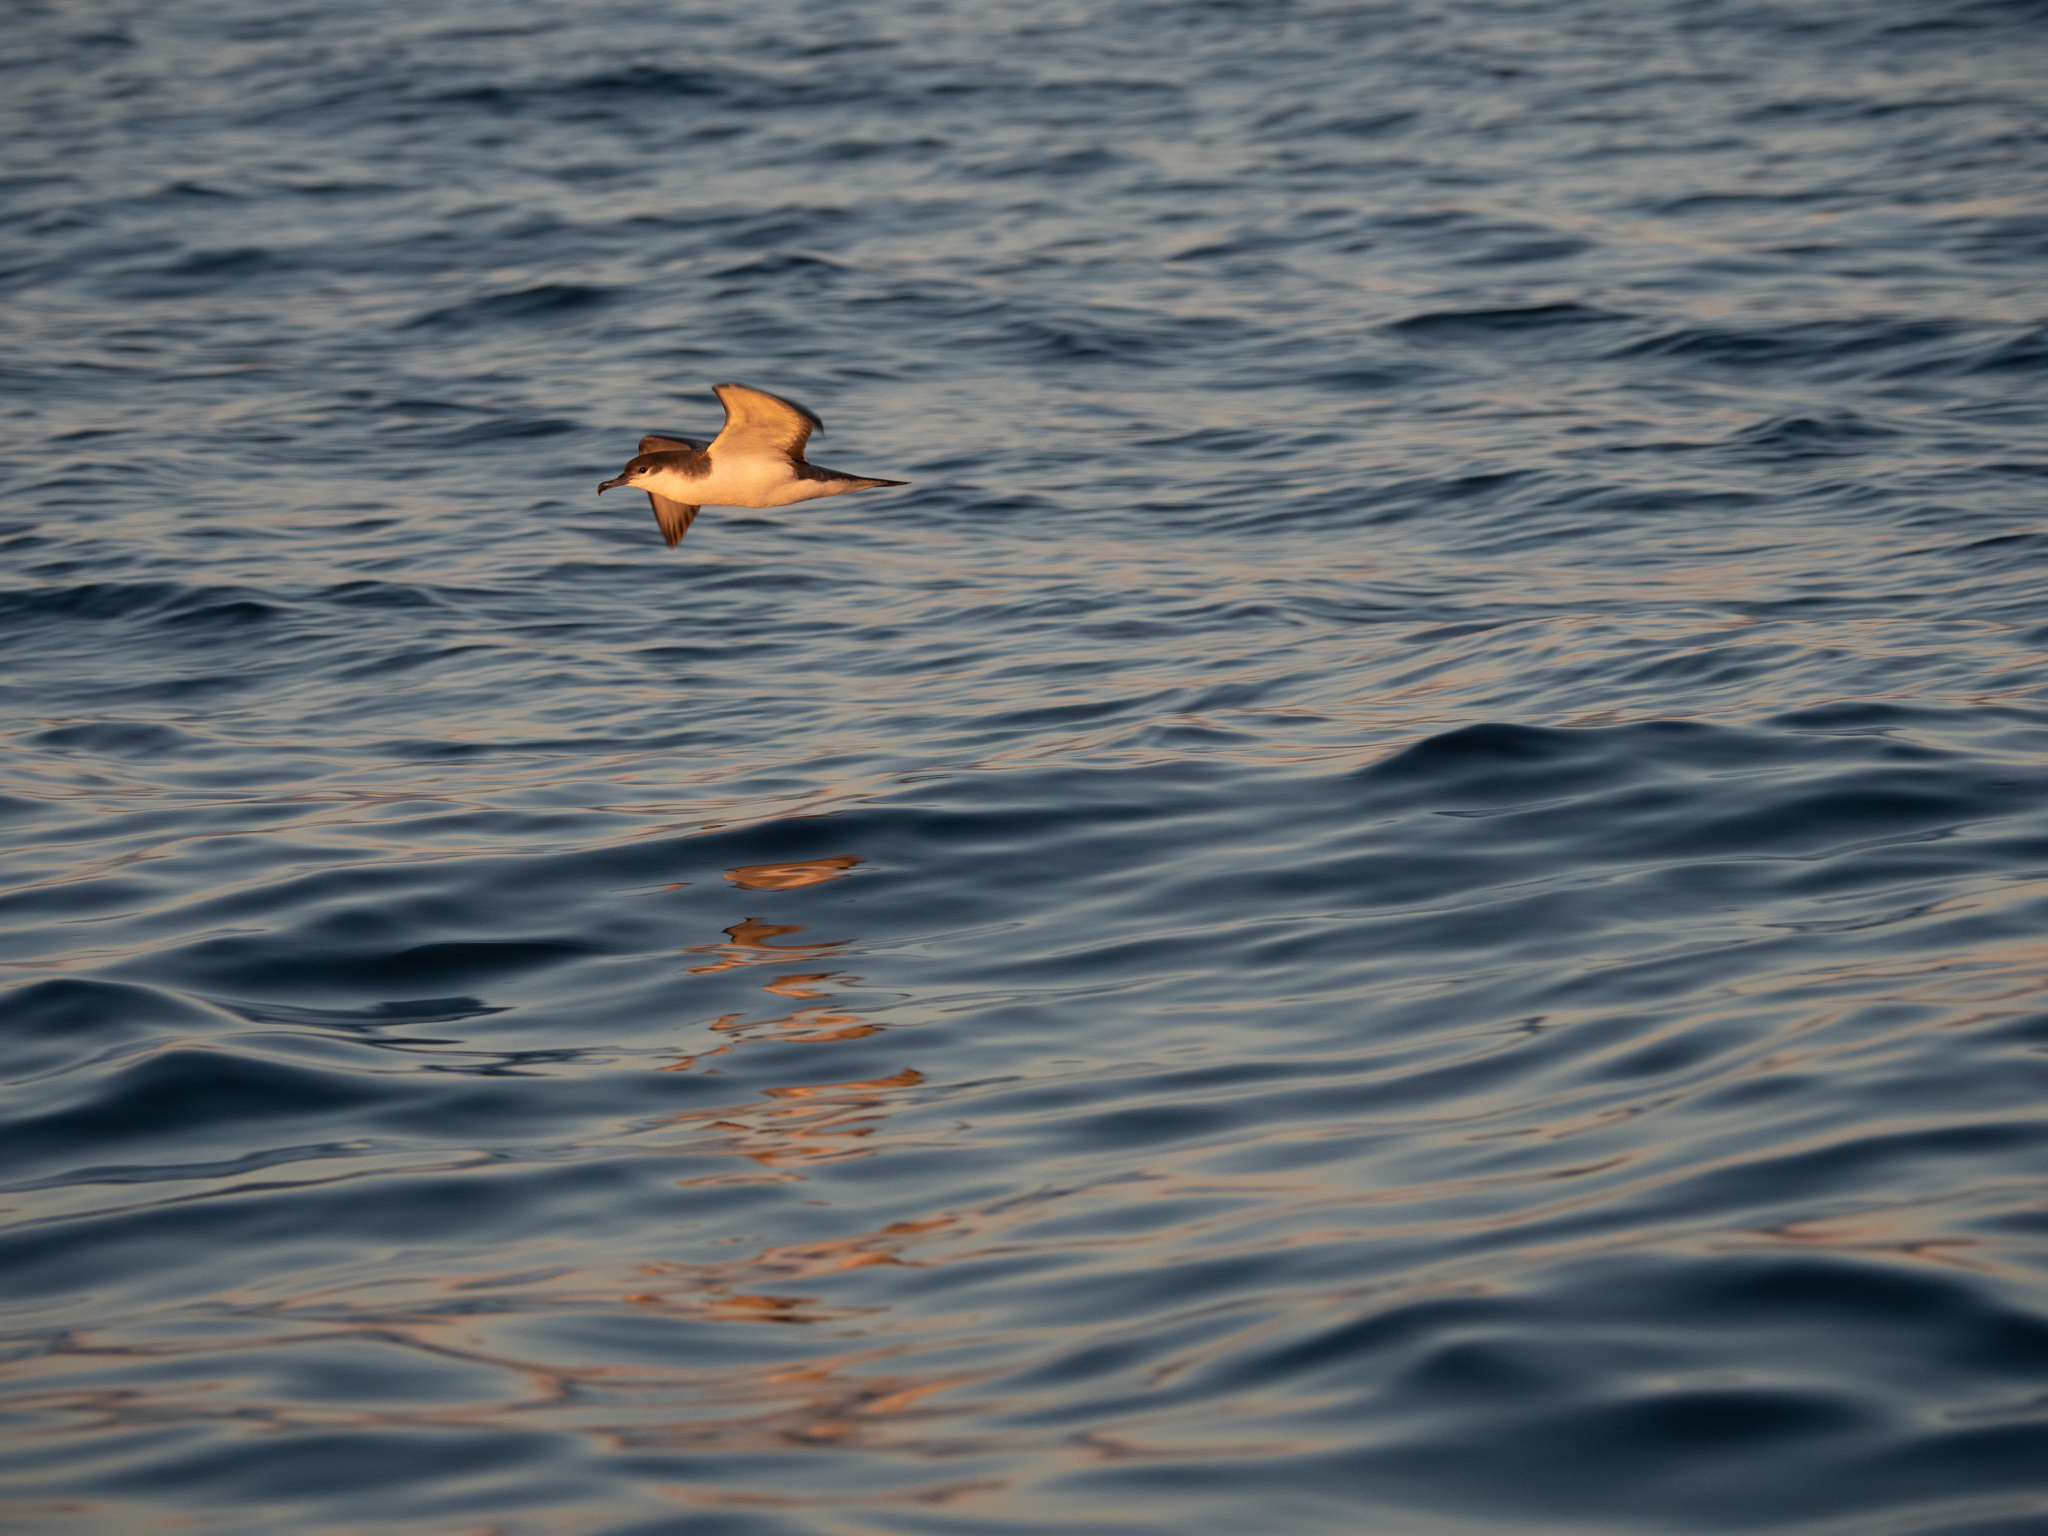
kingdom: Animalia
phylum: Chordata
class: Aves
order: Procellariiformes
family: Procellariidae
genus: Puffinus
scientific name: Puffinus bulleri
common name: Buller's shearwater
